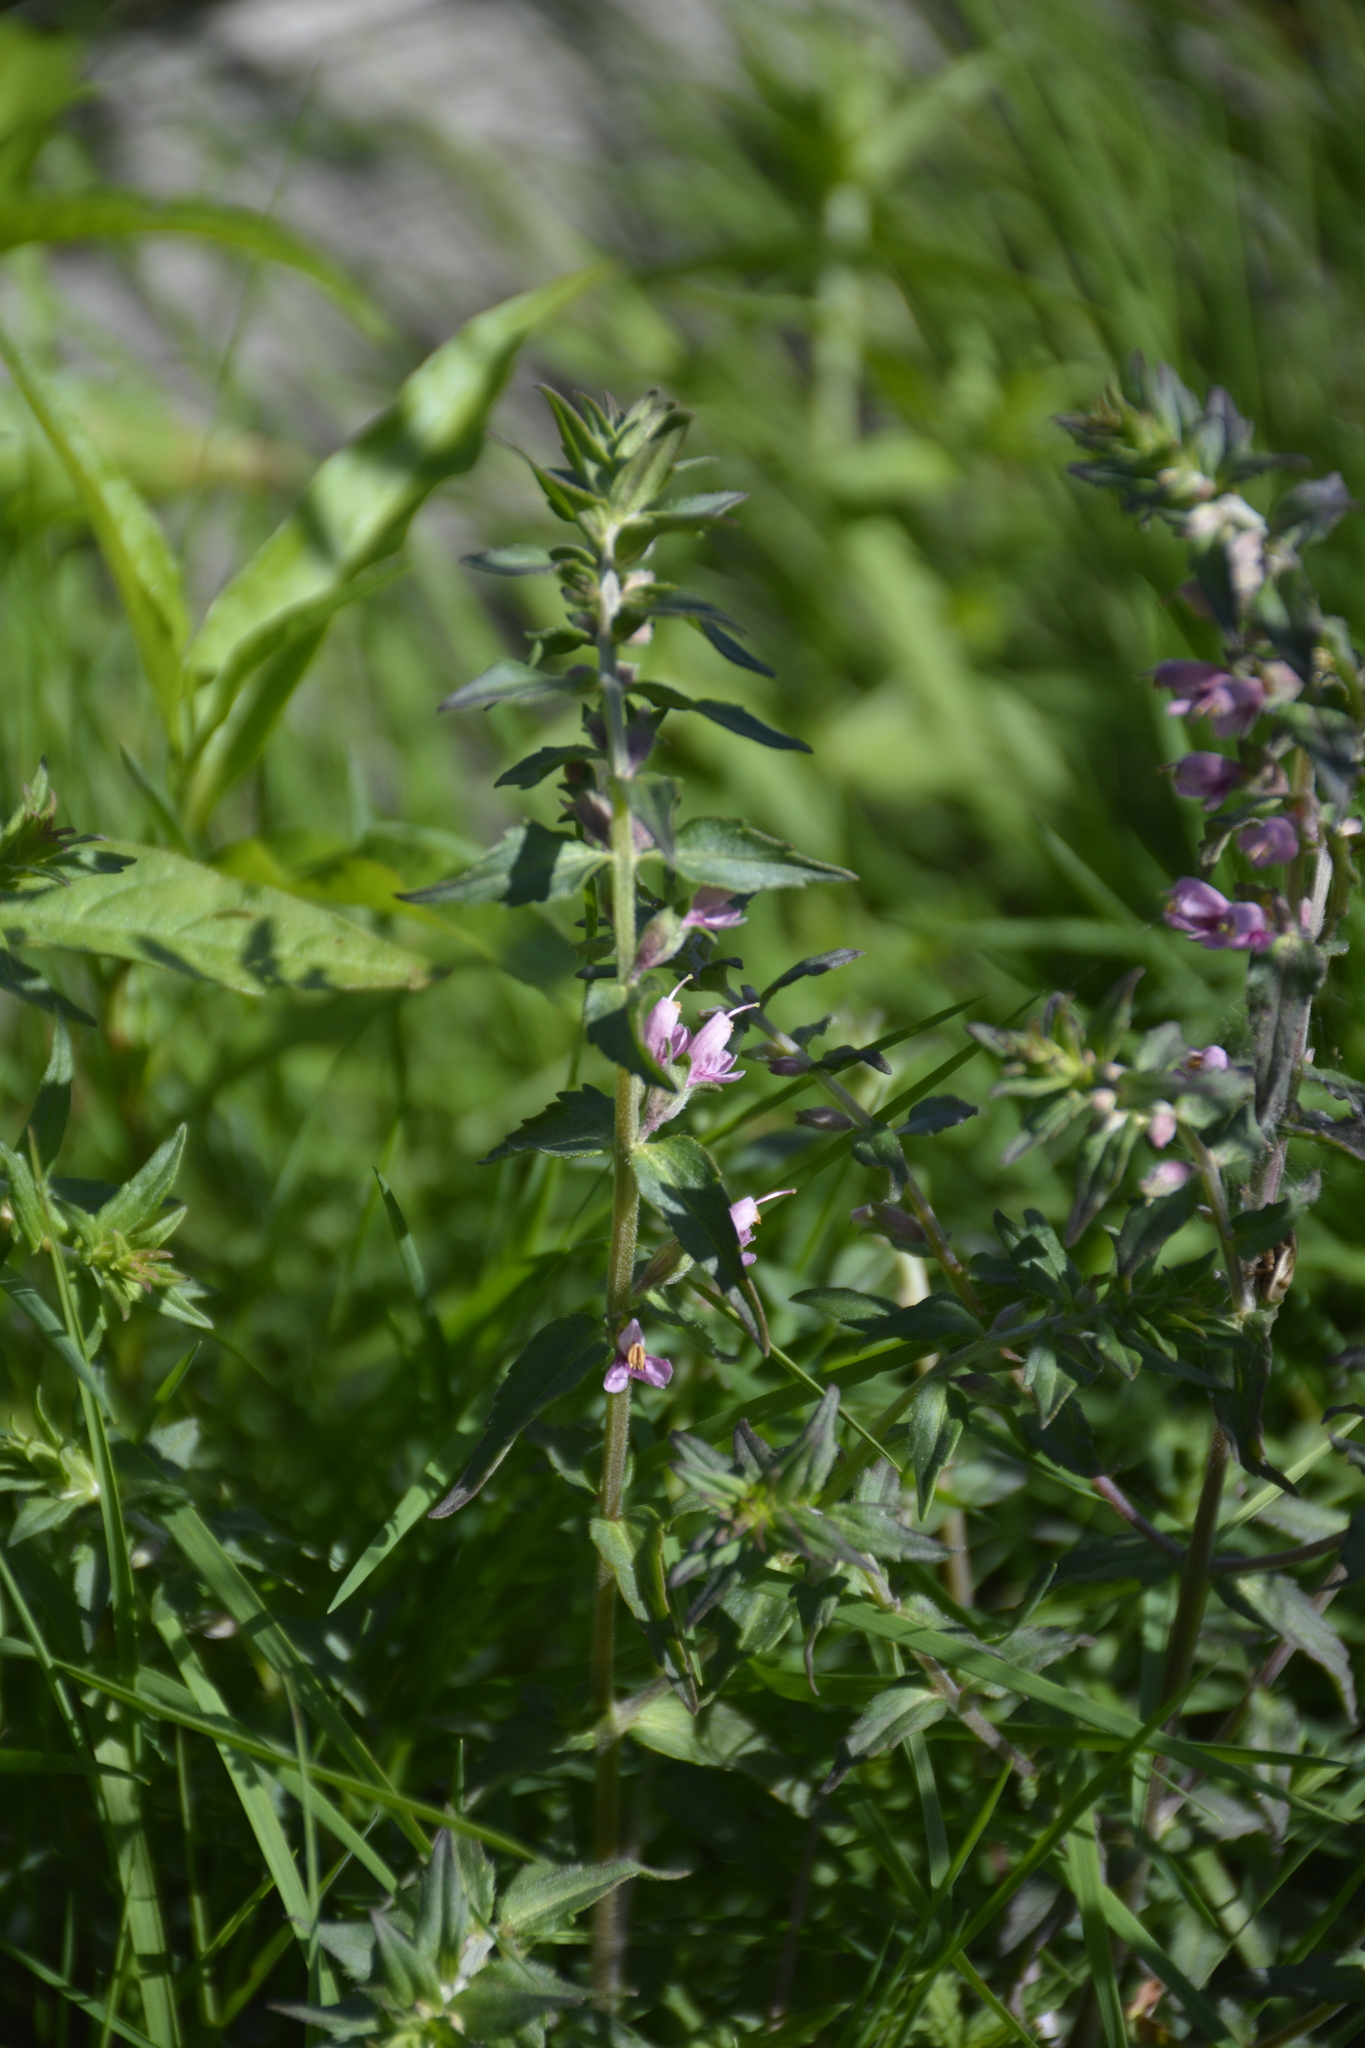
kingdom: Plantae
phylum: Tracheophyta
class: Magnoliopsida
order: Lamiales
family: Orobanchaceae
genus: Odontites
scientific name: Odontites vulgaris
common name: Broomrape
